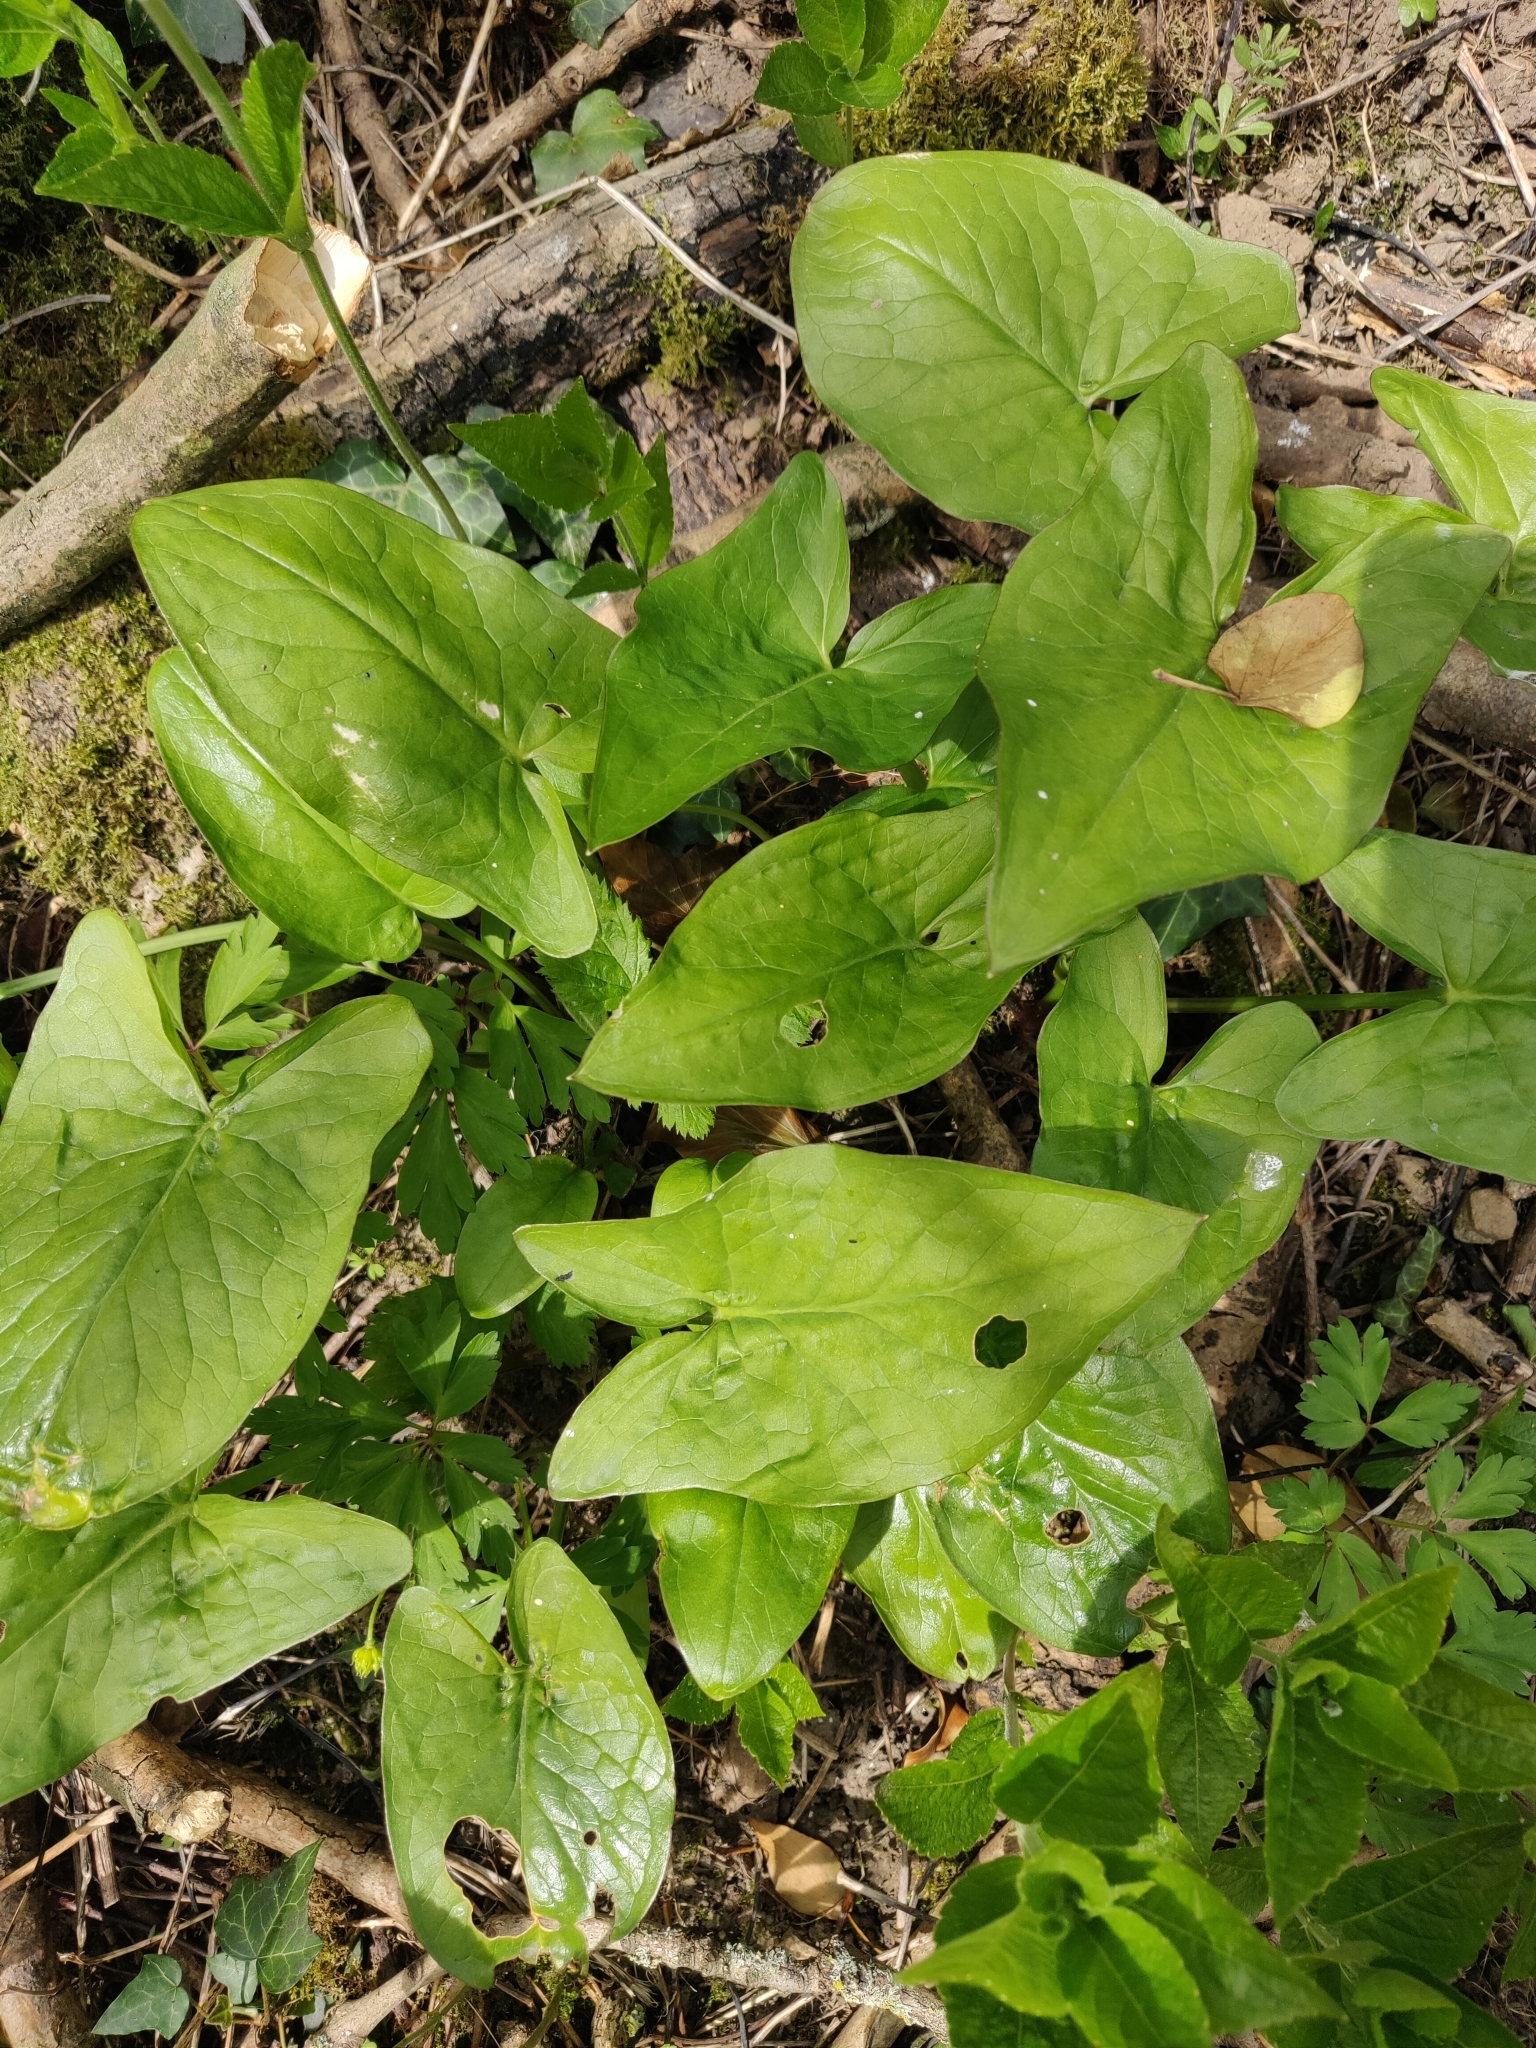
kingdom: Plantae
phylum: Tracheophyta
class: Liliopsida
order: Alismatales
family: Araceae
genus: Arum
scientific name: Arum maculatum
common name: Lords-and-ladies
